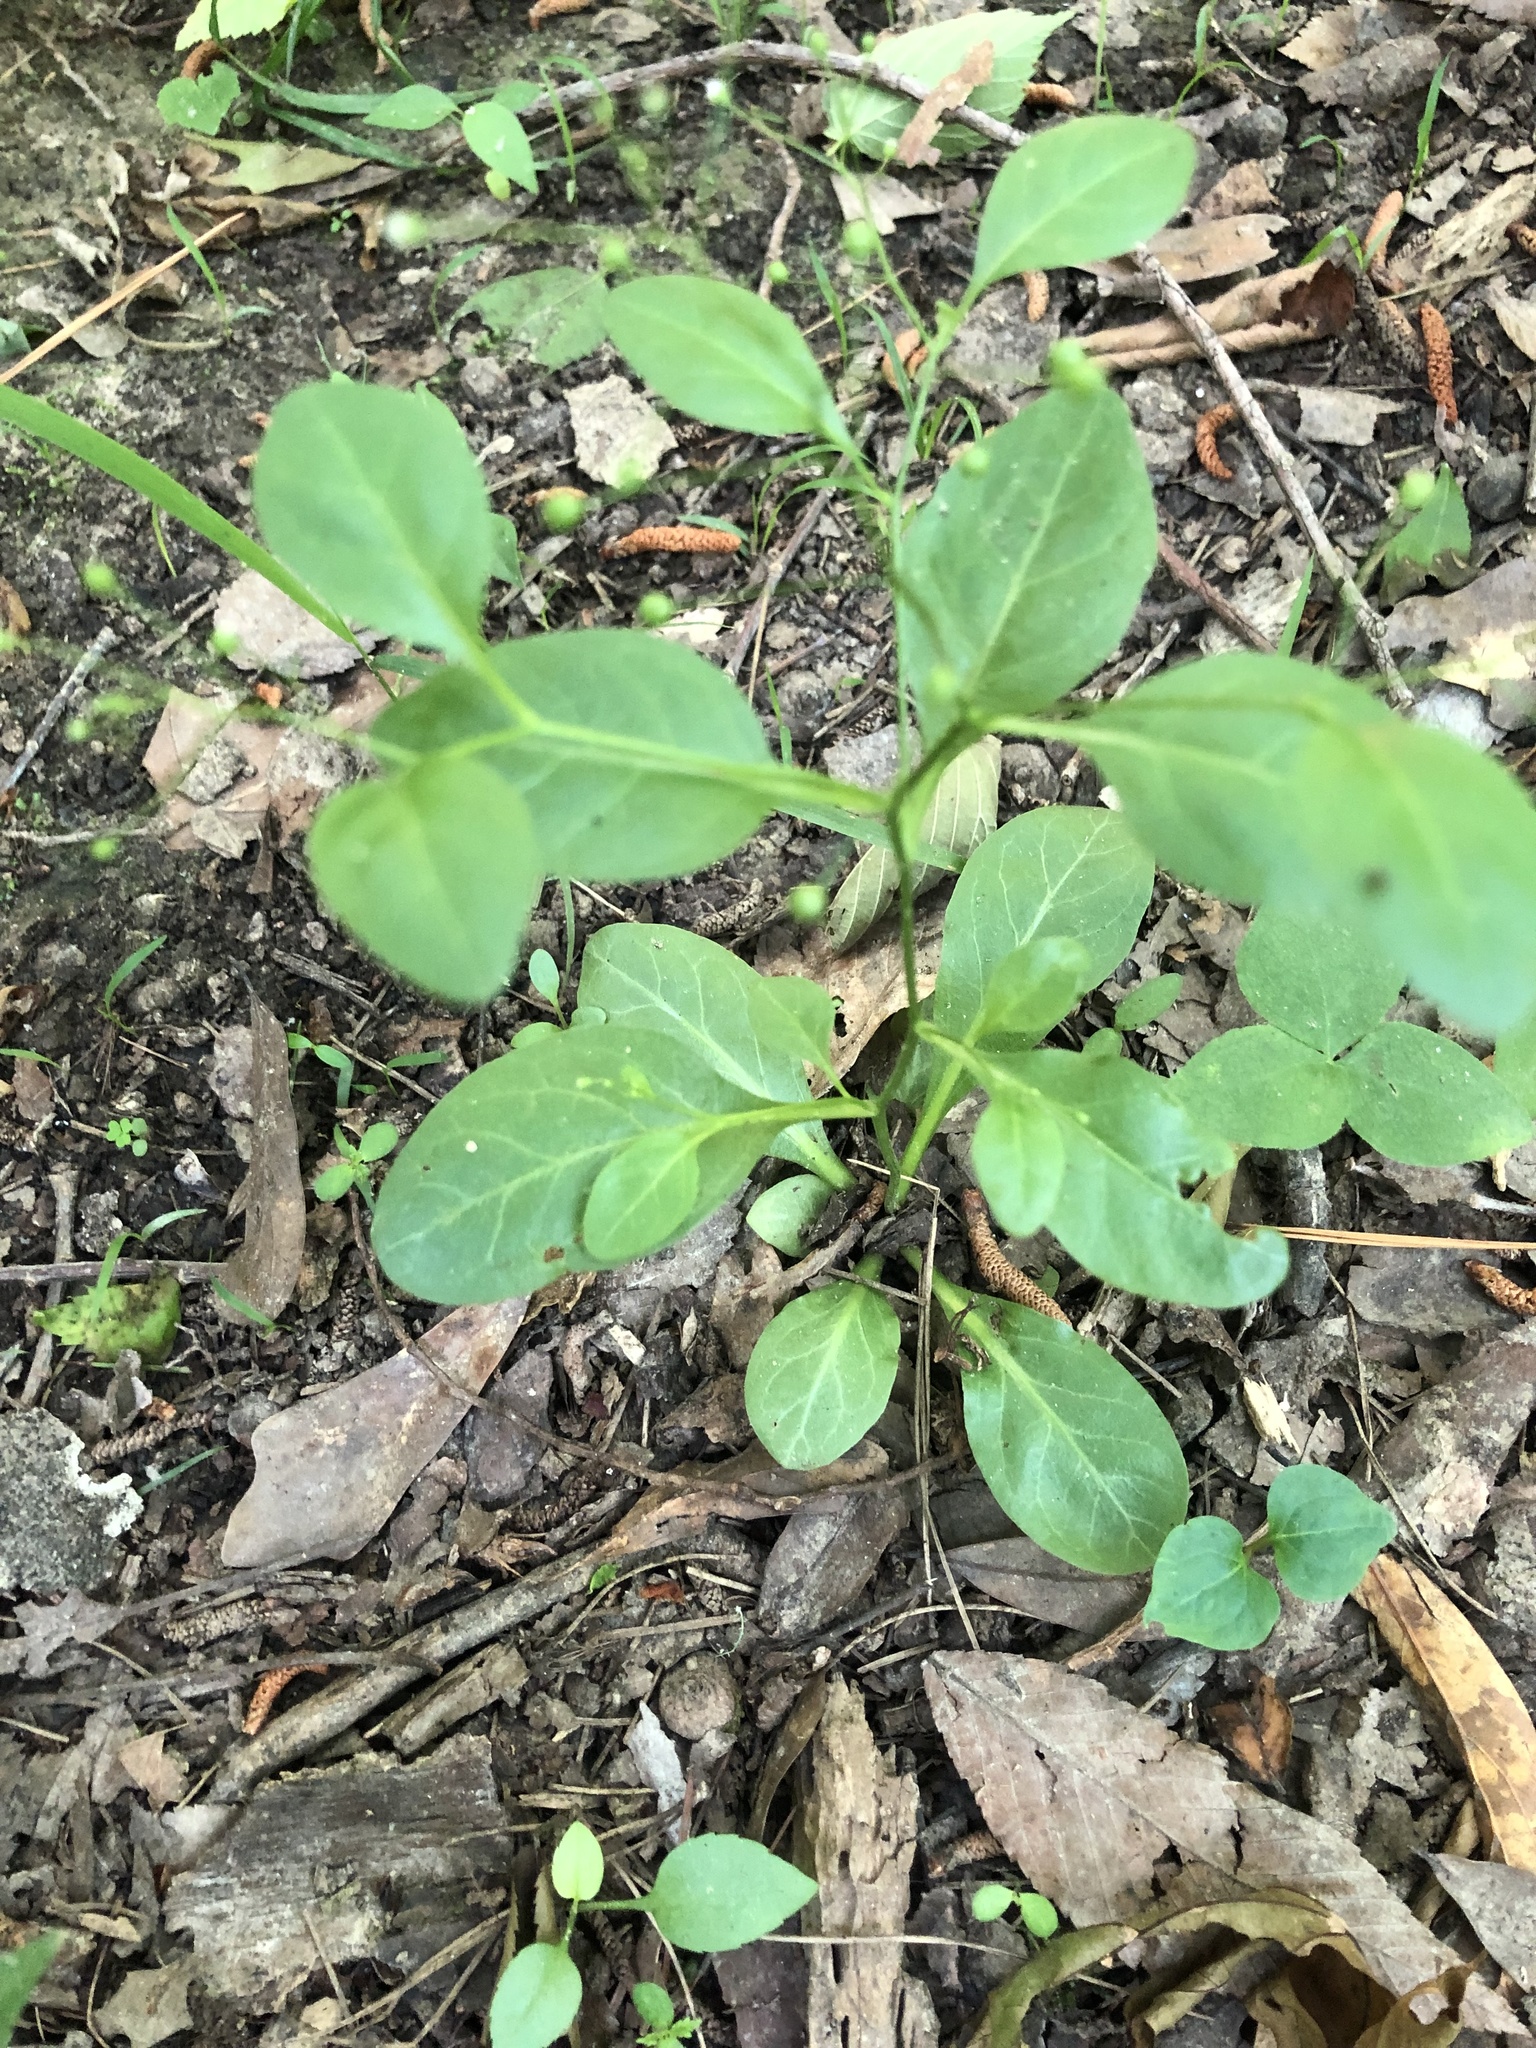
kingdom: Plantae
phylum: Tracheophyta
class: Magnoliopsida
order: Ericales
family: Primulaceae
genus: Samolus
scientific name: Samolus parviflorus
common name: False water pimpernel
